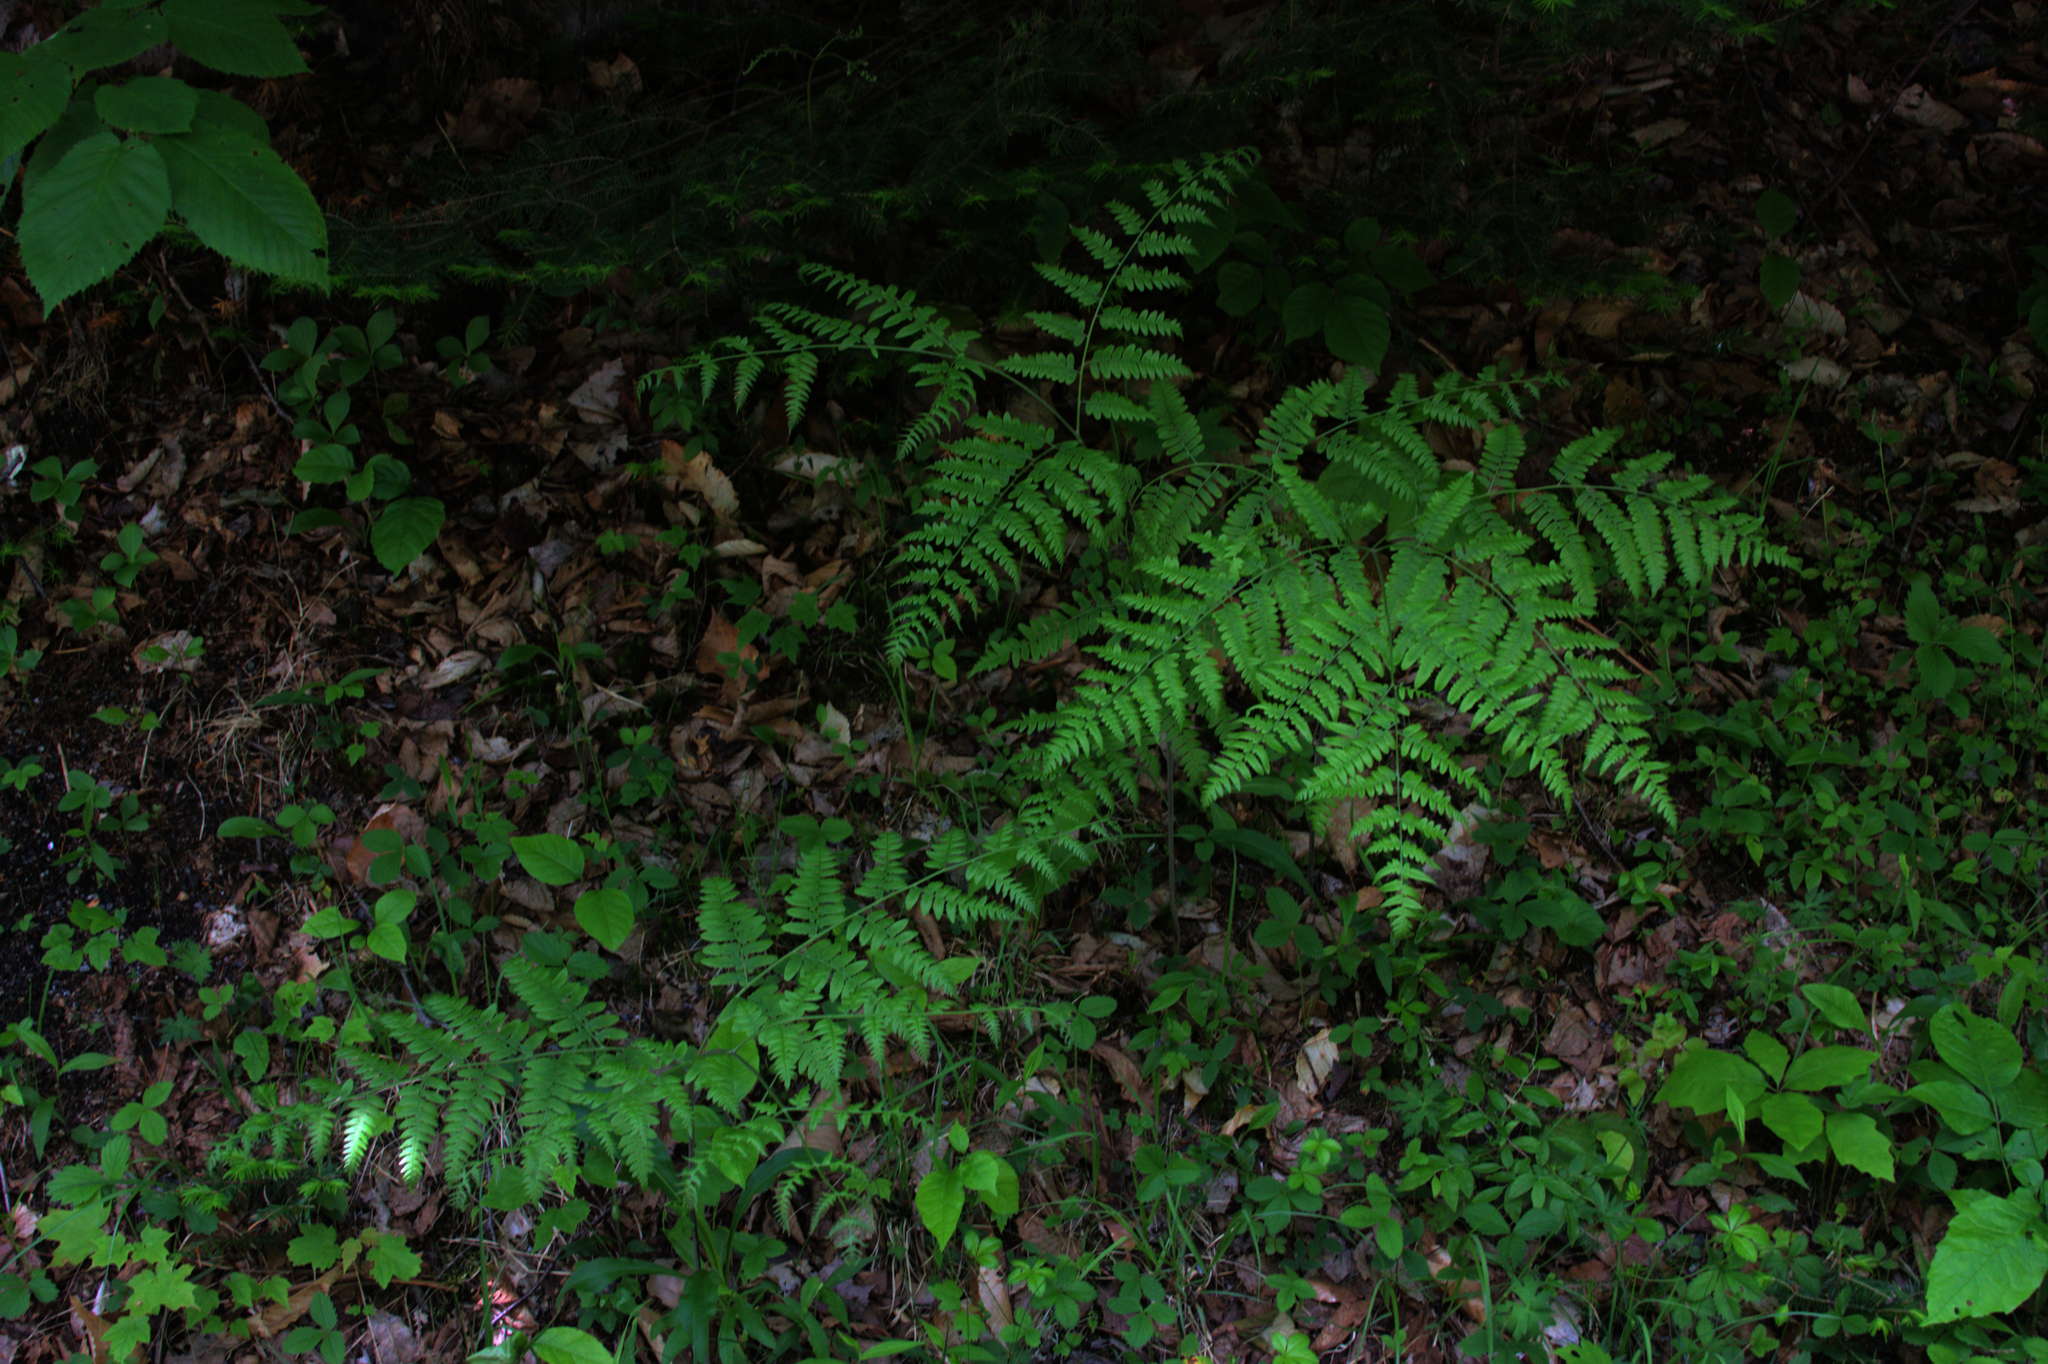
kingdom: Plantae
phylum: Tracheophyta
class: Polypodiopsida
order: Polypodiales
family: Dennstaedtiaceae
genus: Pteridium
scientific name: Pteridium aquilinum
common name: Bracken
